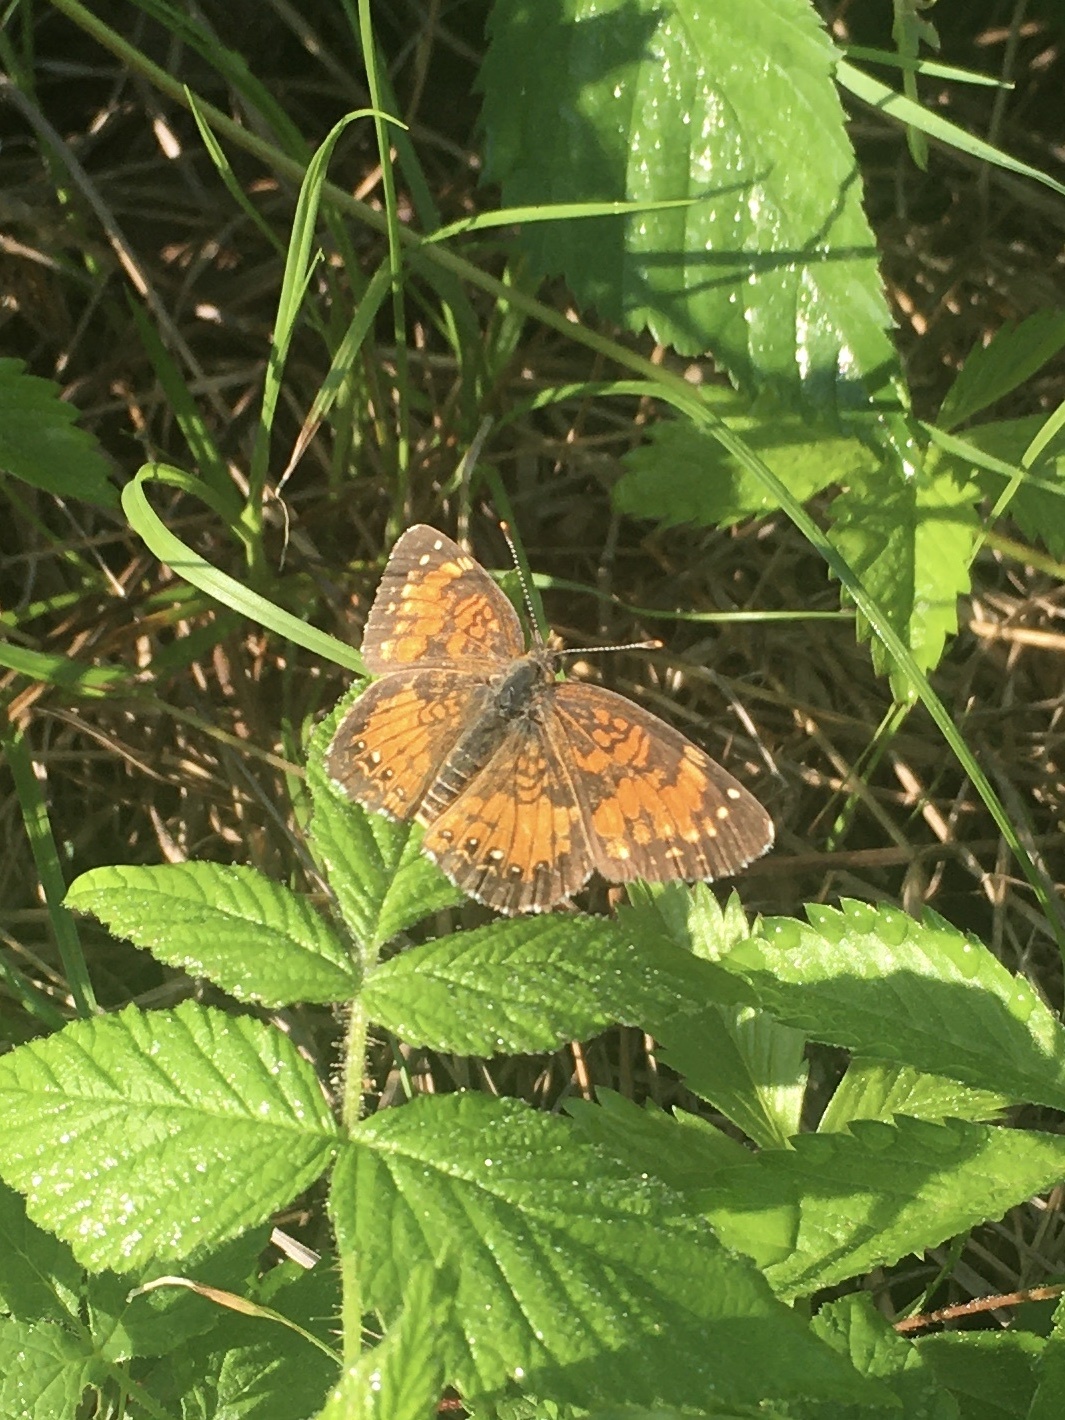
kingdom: Animalia
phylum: Arthropoda
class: Insecta
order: Lepidoptera
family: Nymphalidae
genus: Chlosyne
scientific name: Chlosyne harrisii
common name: Harris's checkerspot
